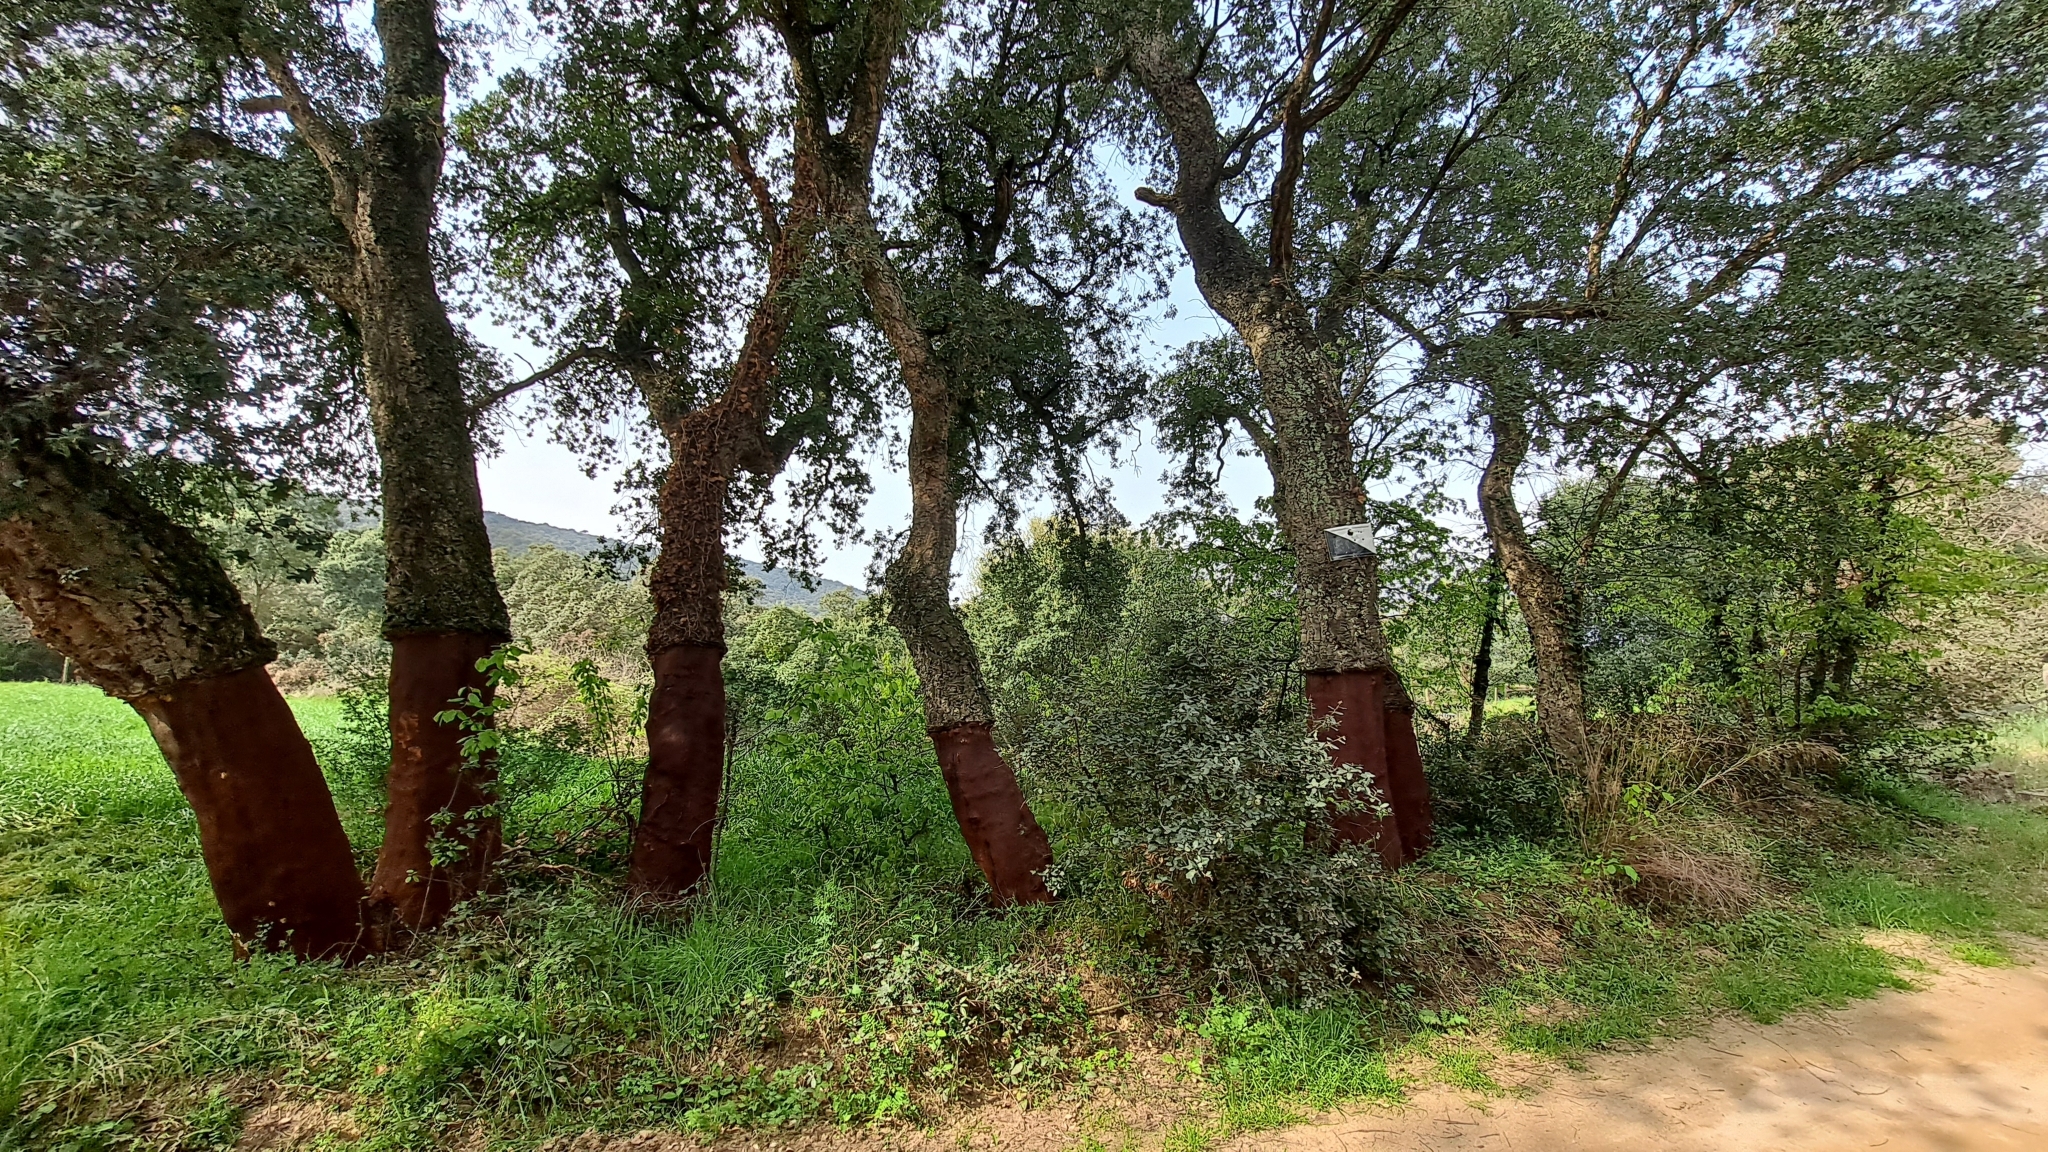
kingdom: Plantae
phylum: Tracheophyta
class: Magnoliopsida
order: Fagales
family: Fagaceae
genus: Quercus
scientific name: Quercus suber
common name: Cork oak
